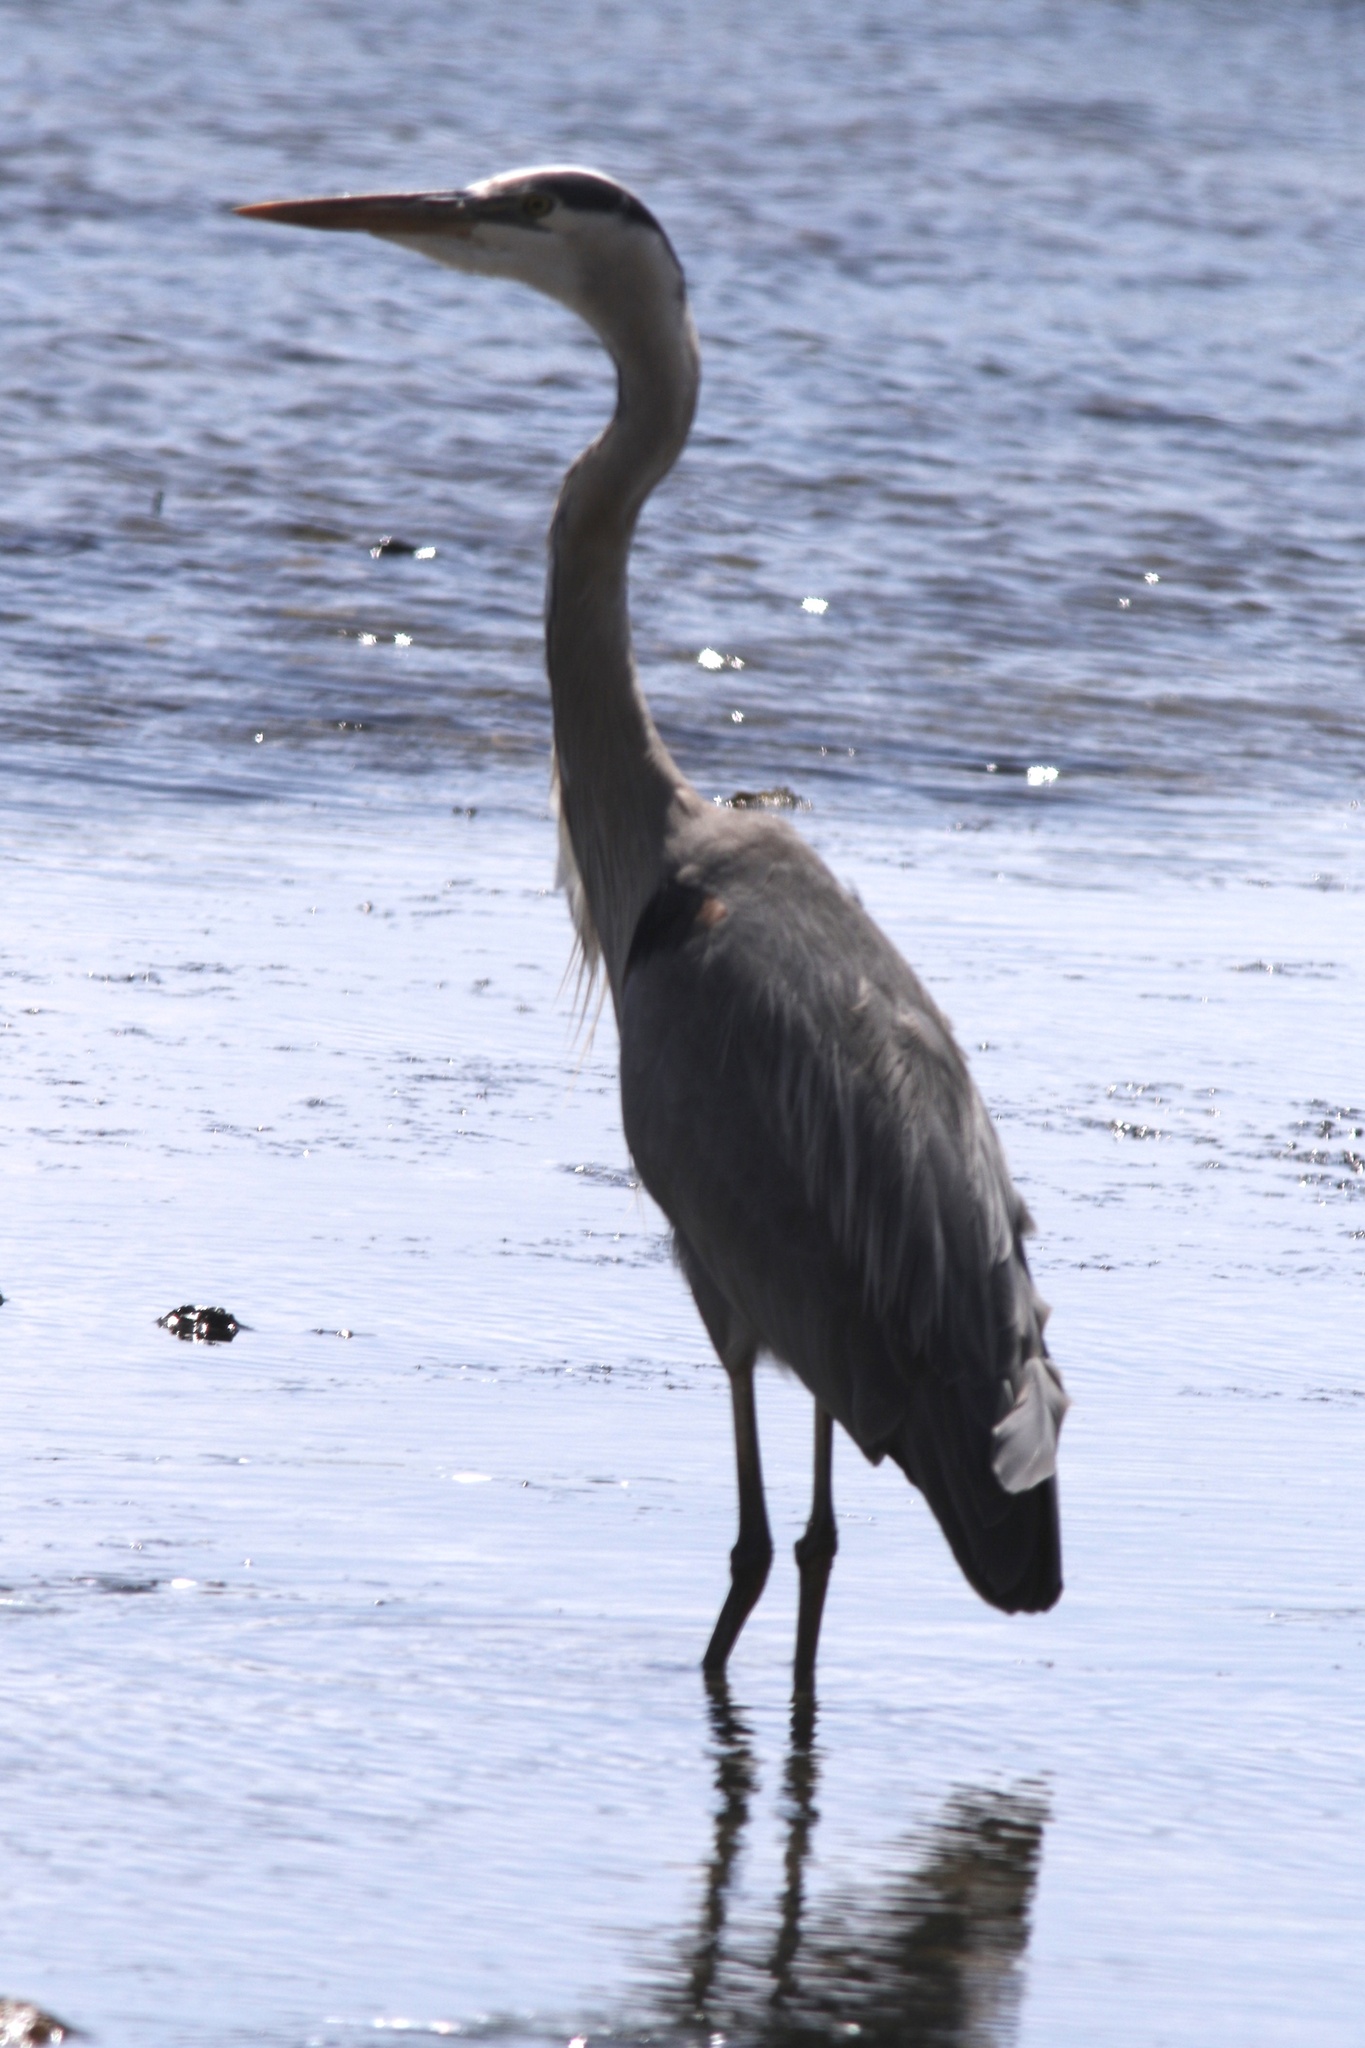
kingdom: Animalia
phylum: Chordata
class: Aves
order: Pelecaniformes
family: Ardeidae
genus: Ardea
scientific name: Ardea herodias
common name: Great blue heron
